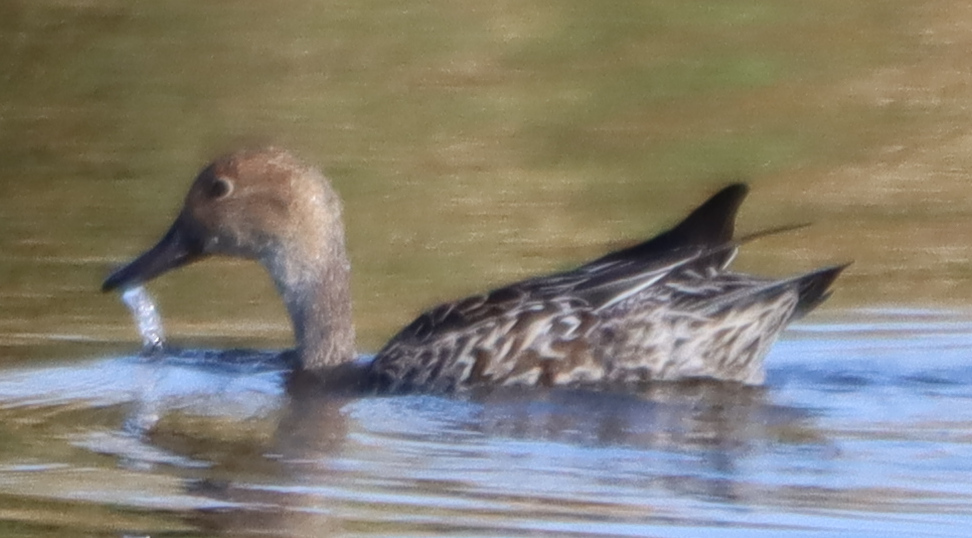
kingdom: Animalia
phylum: Chordata
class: Aves
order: Anseriformes
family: Anatidae
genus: Anas
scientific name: Anas acuta
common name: Northern pintail
